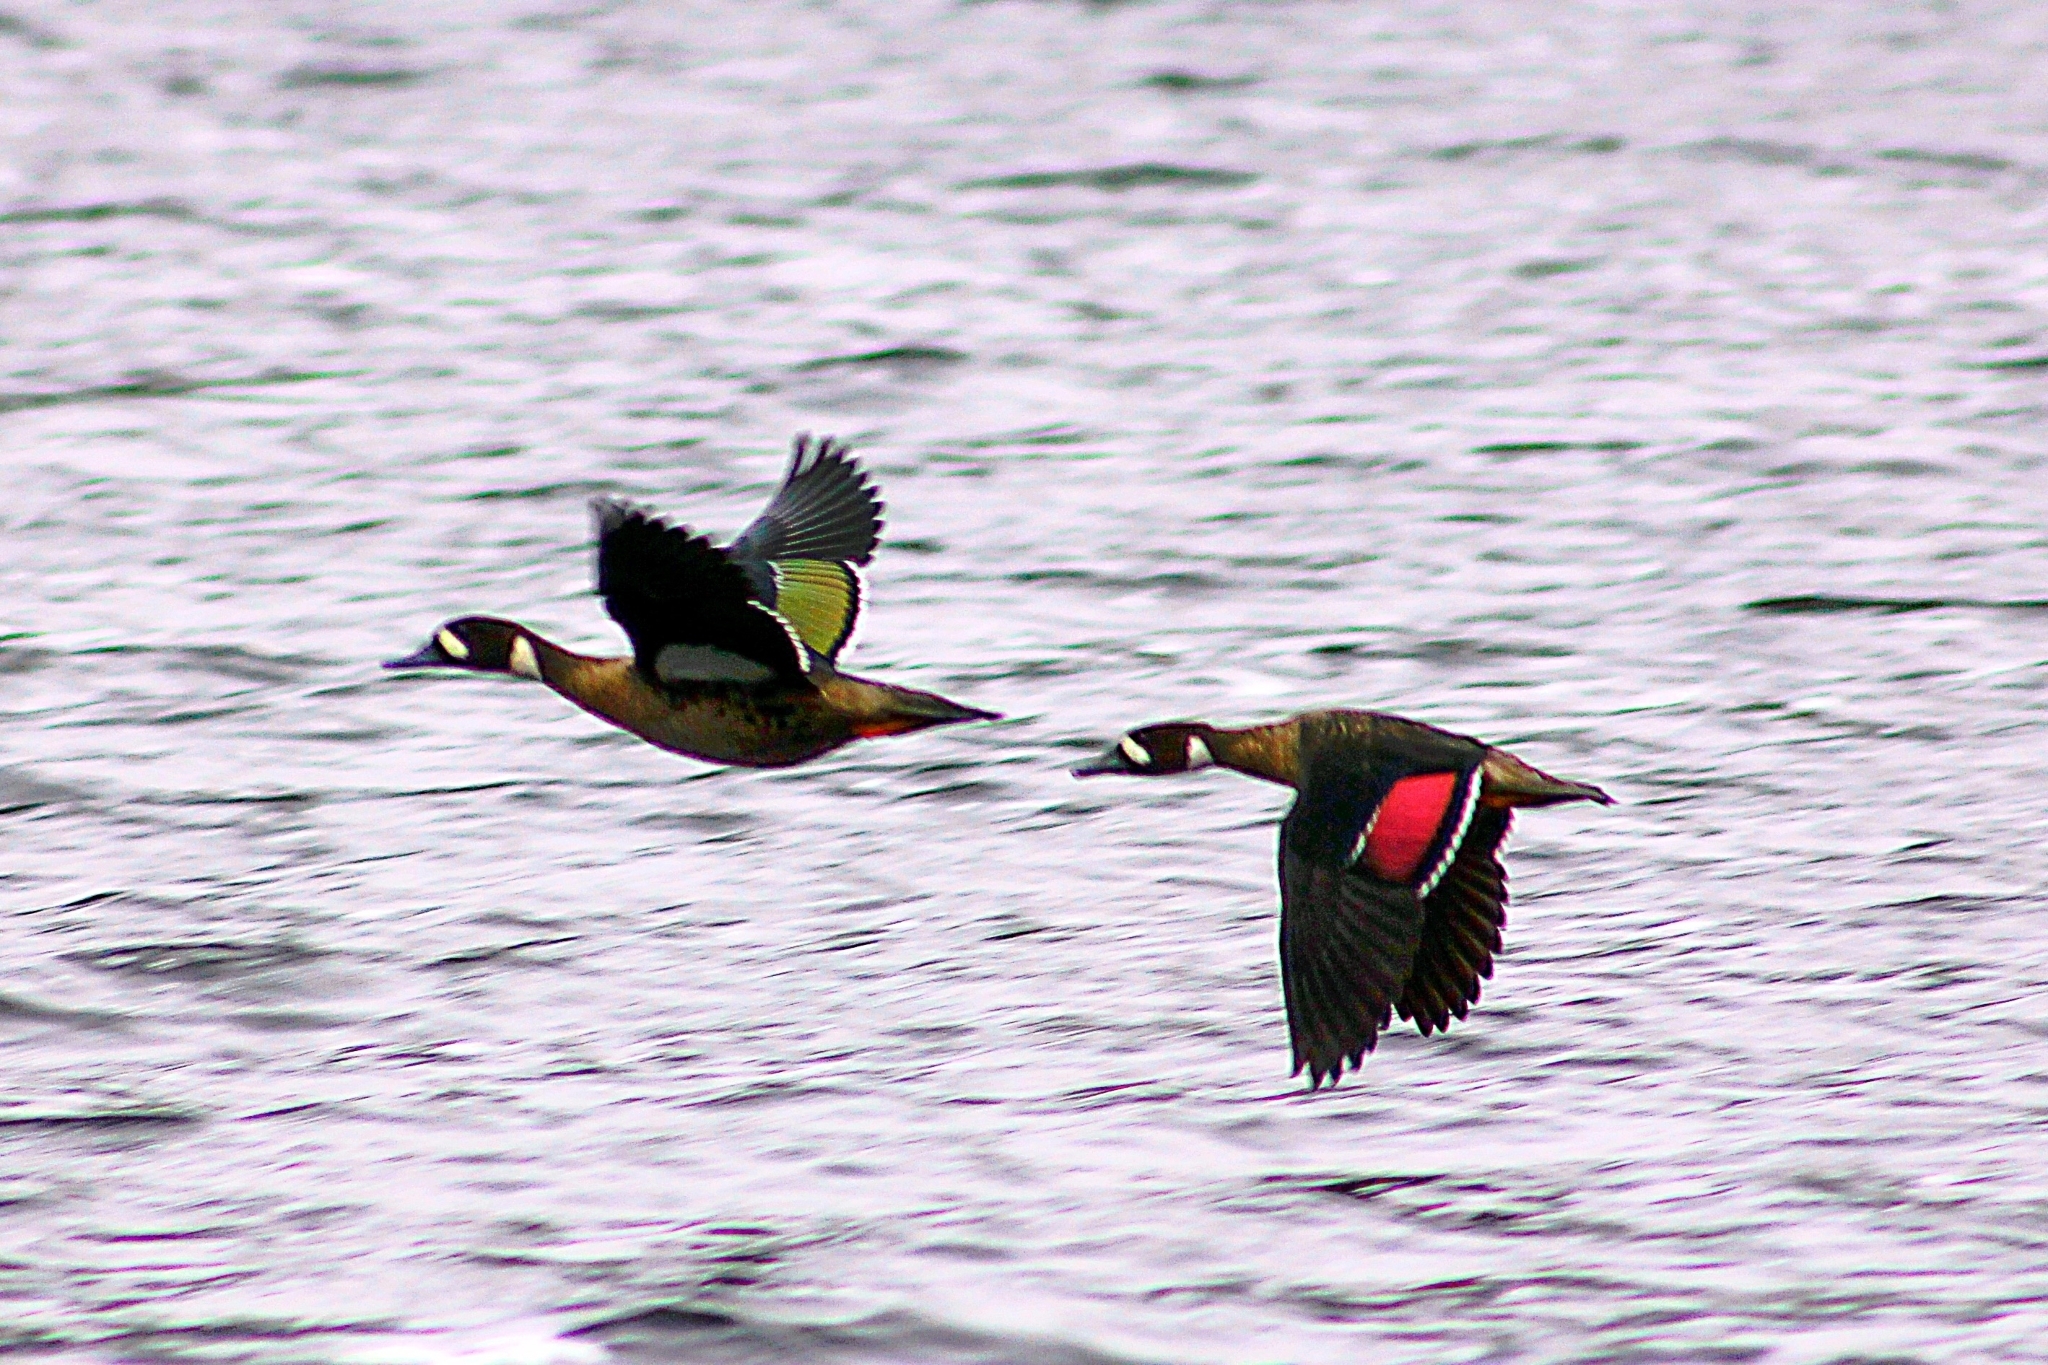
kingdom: Animalia
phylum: Chordata
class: Aves
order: Anseriformes
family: Anatidae
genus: Speculanas
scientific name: Speculanas specularis
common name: Bronze-winged duck
